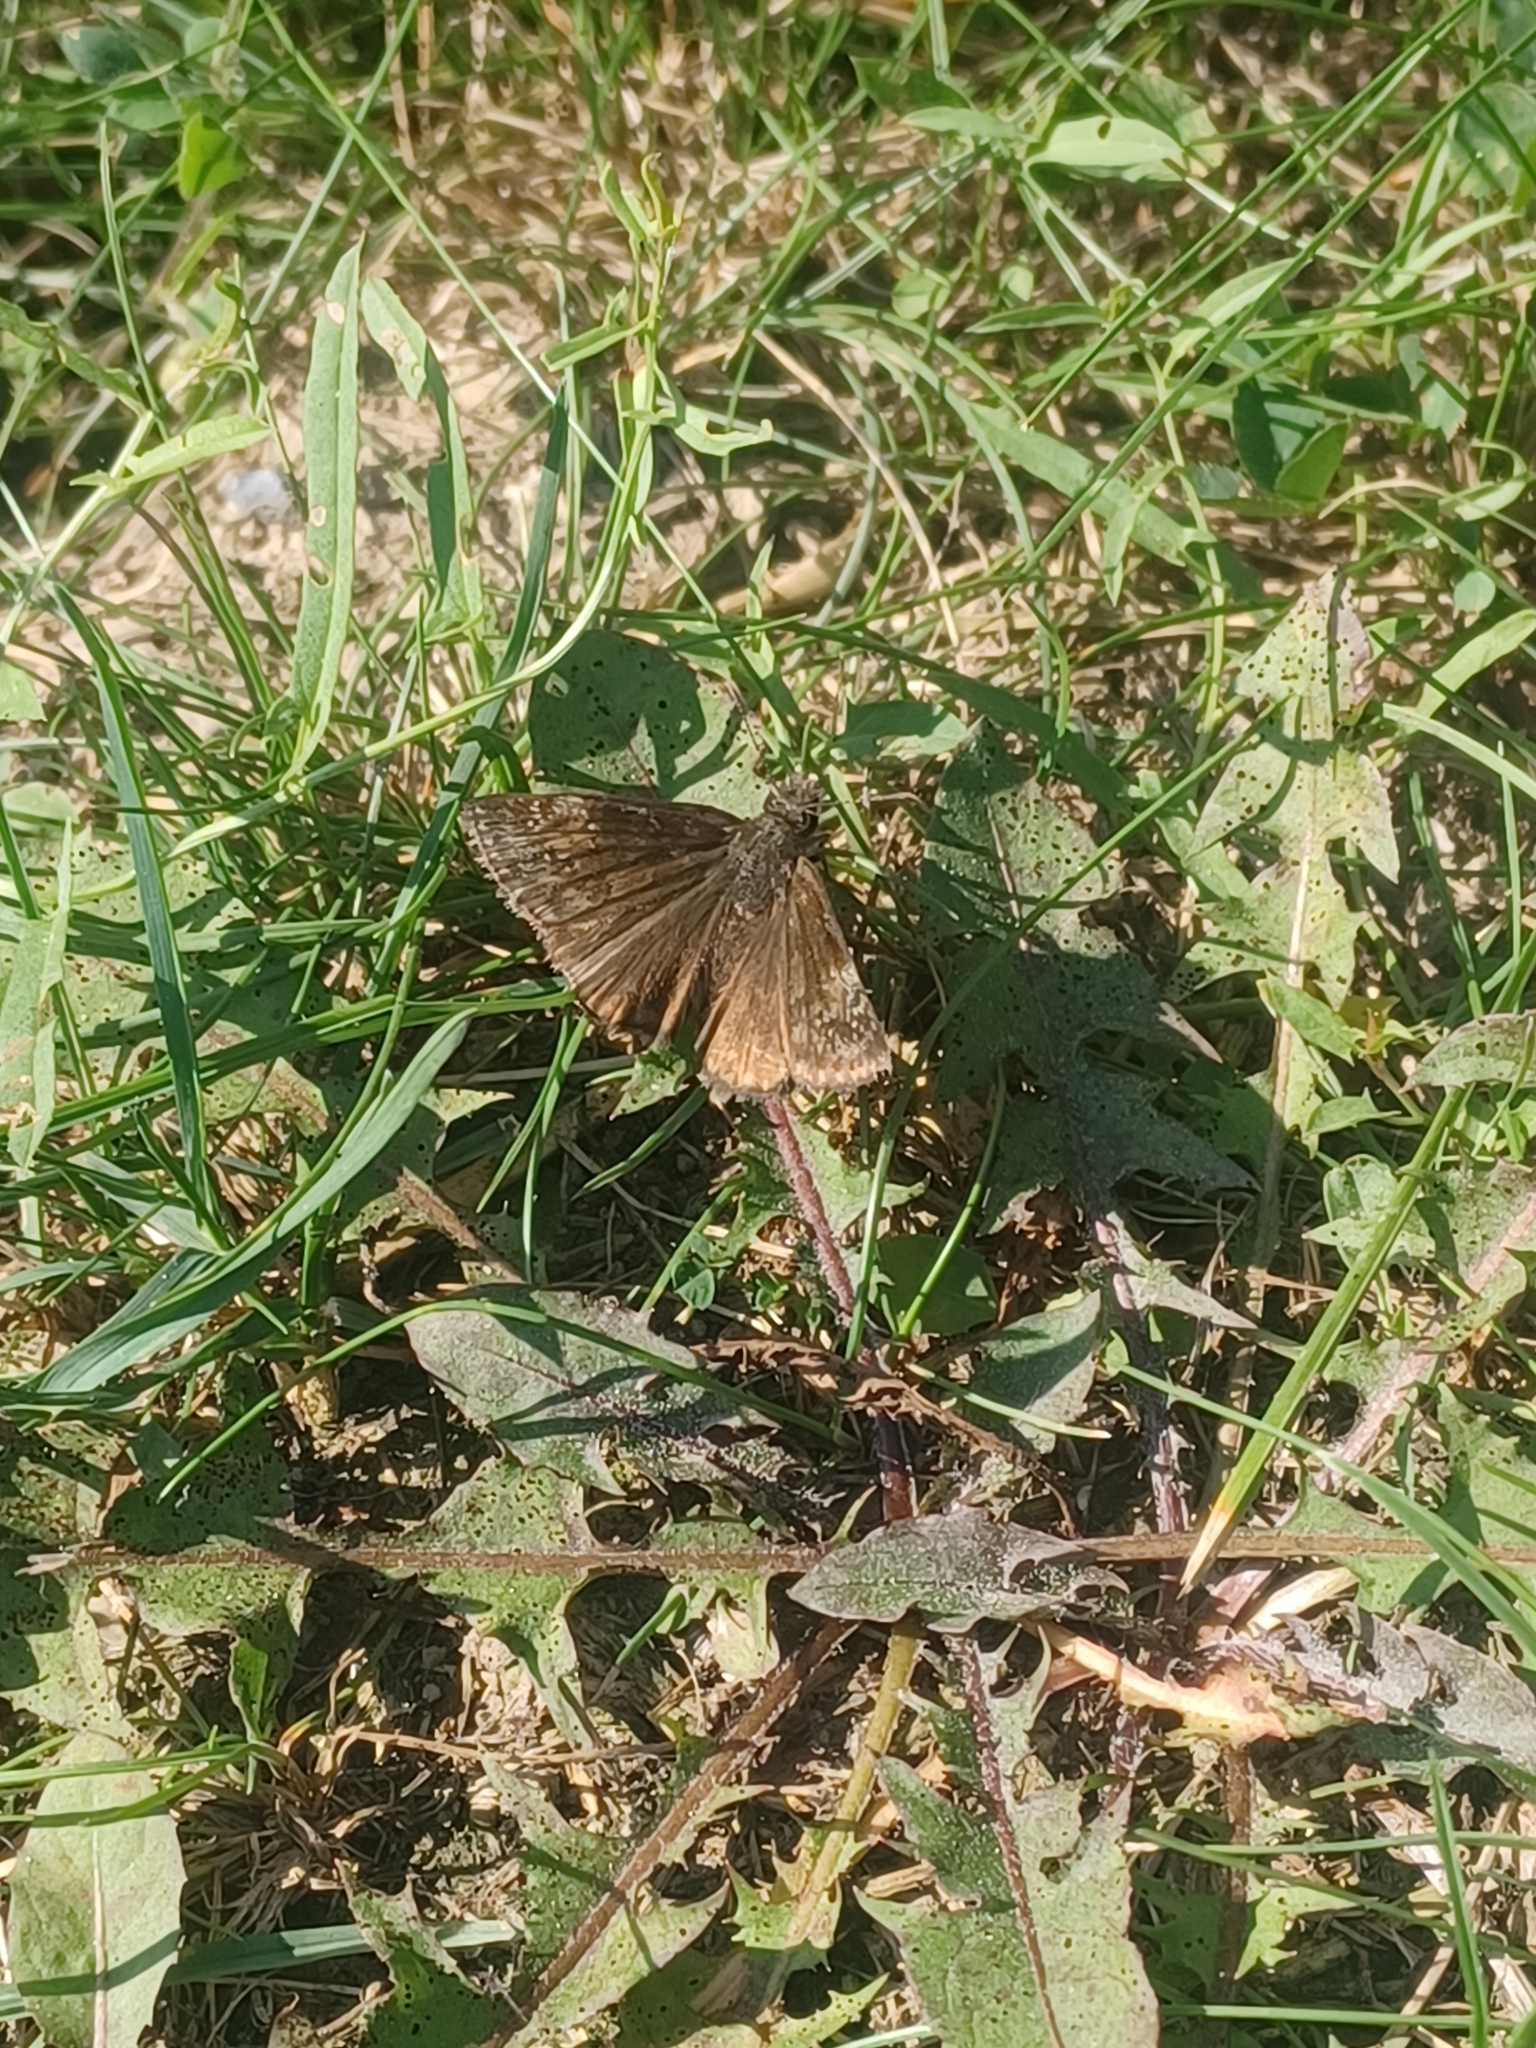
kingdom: Animalia
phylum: Arthropoda
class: Insecta
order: Lepidoptera
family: Hesperiidae
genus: Erynnis
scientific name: Erynnis baptisiae
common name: Wild indigo duskywing
